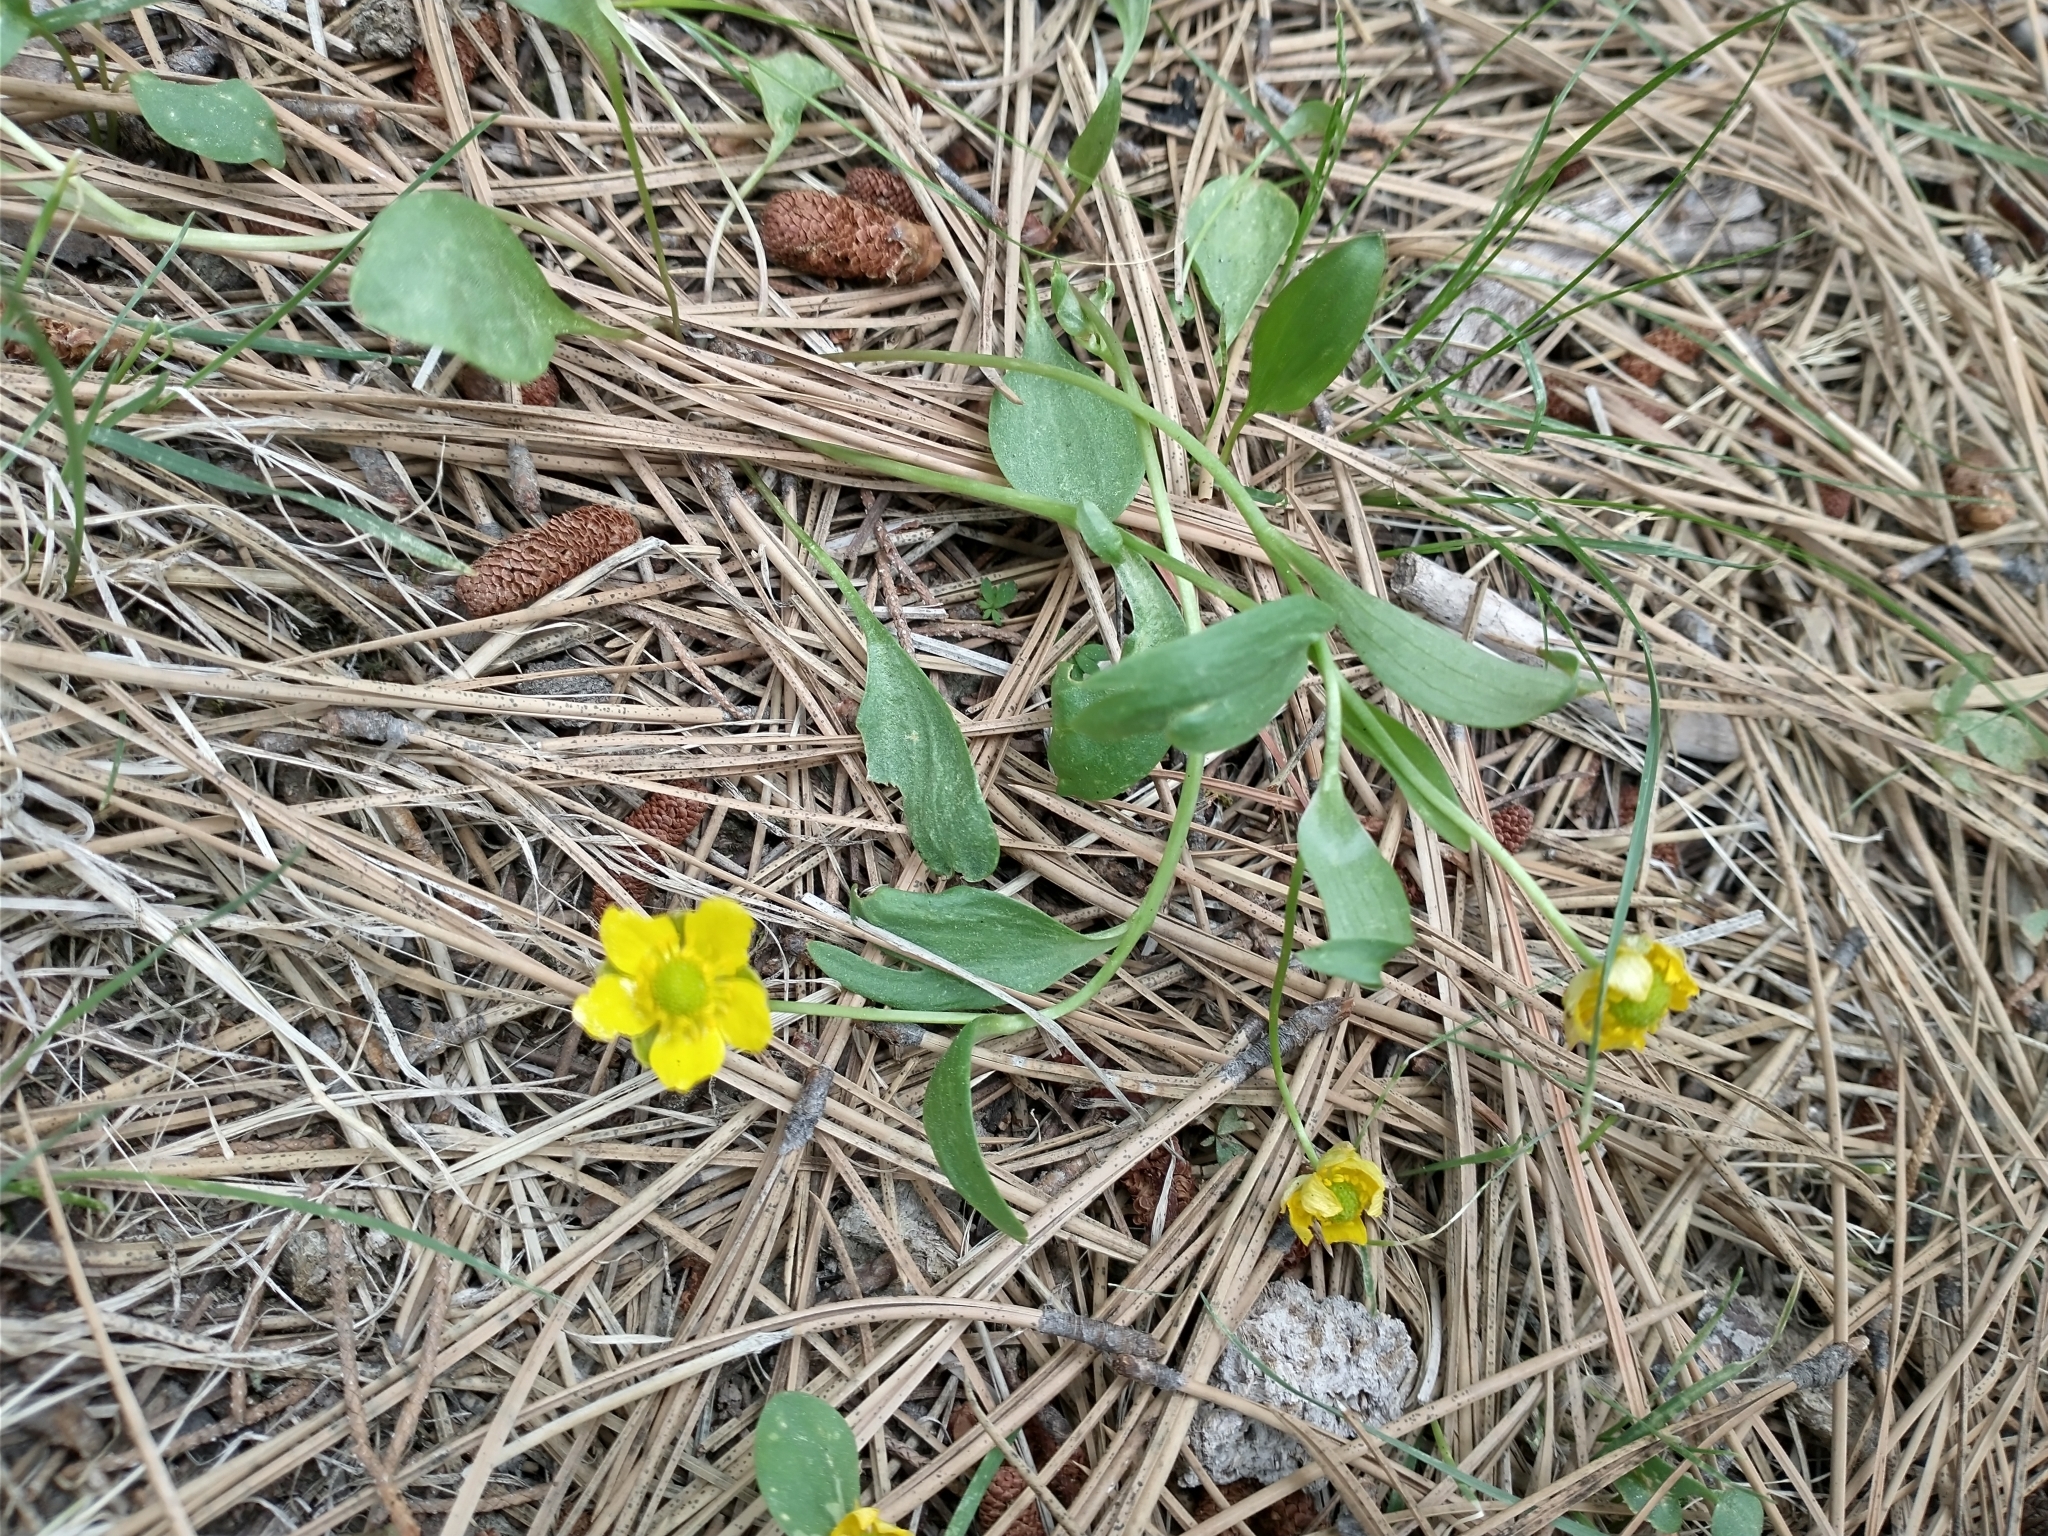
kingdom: Plantae
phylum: Tracheophyta
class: Magnoliopsida
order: Ranunculales
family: Ranunculaceae
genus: Ranunculus
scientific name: Ranunculus glaberrimus
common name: Sagebrush buttercup
